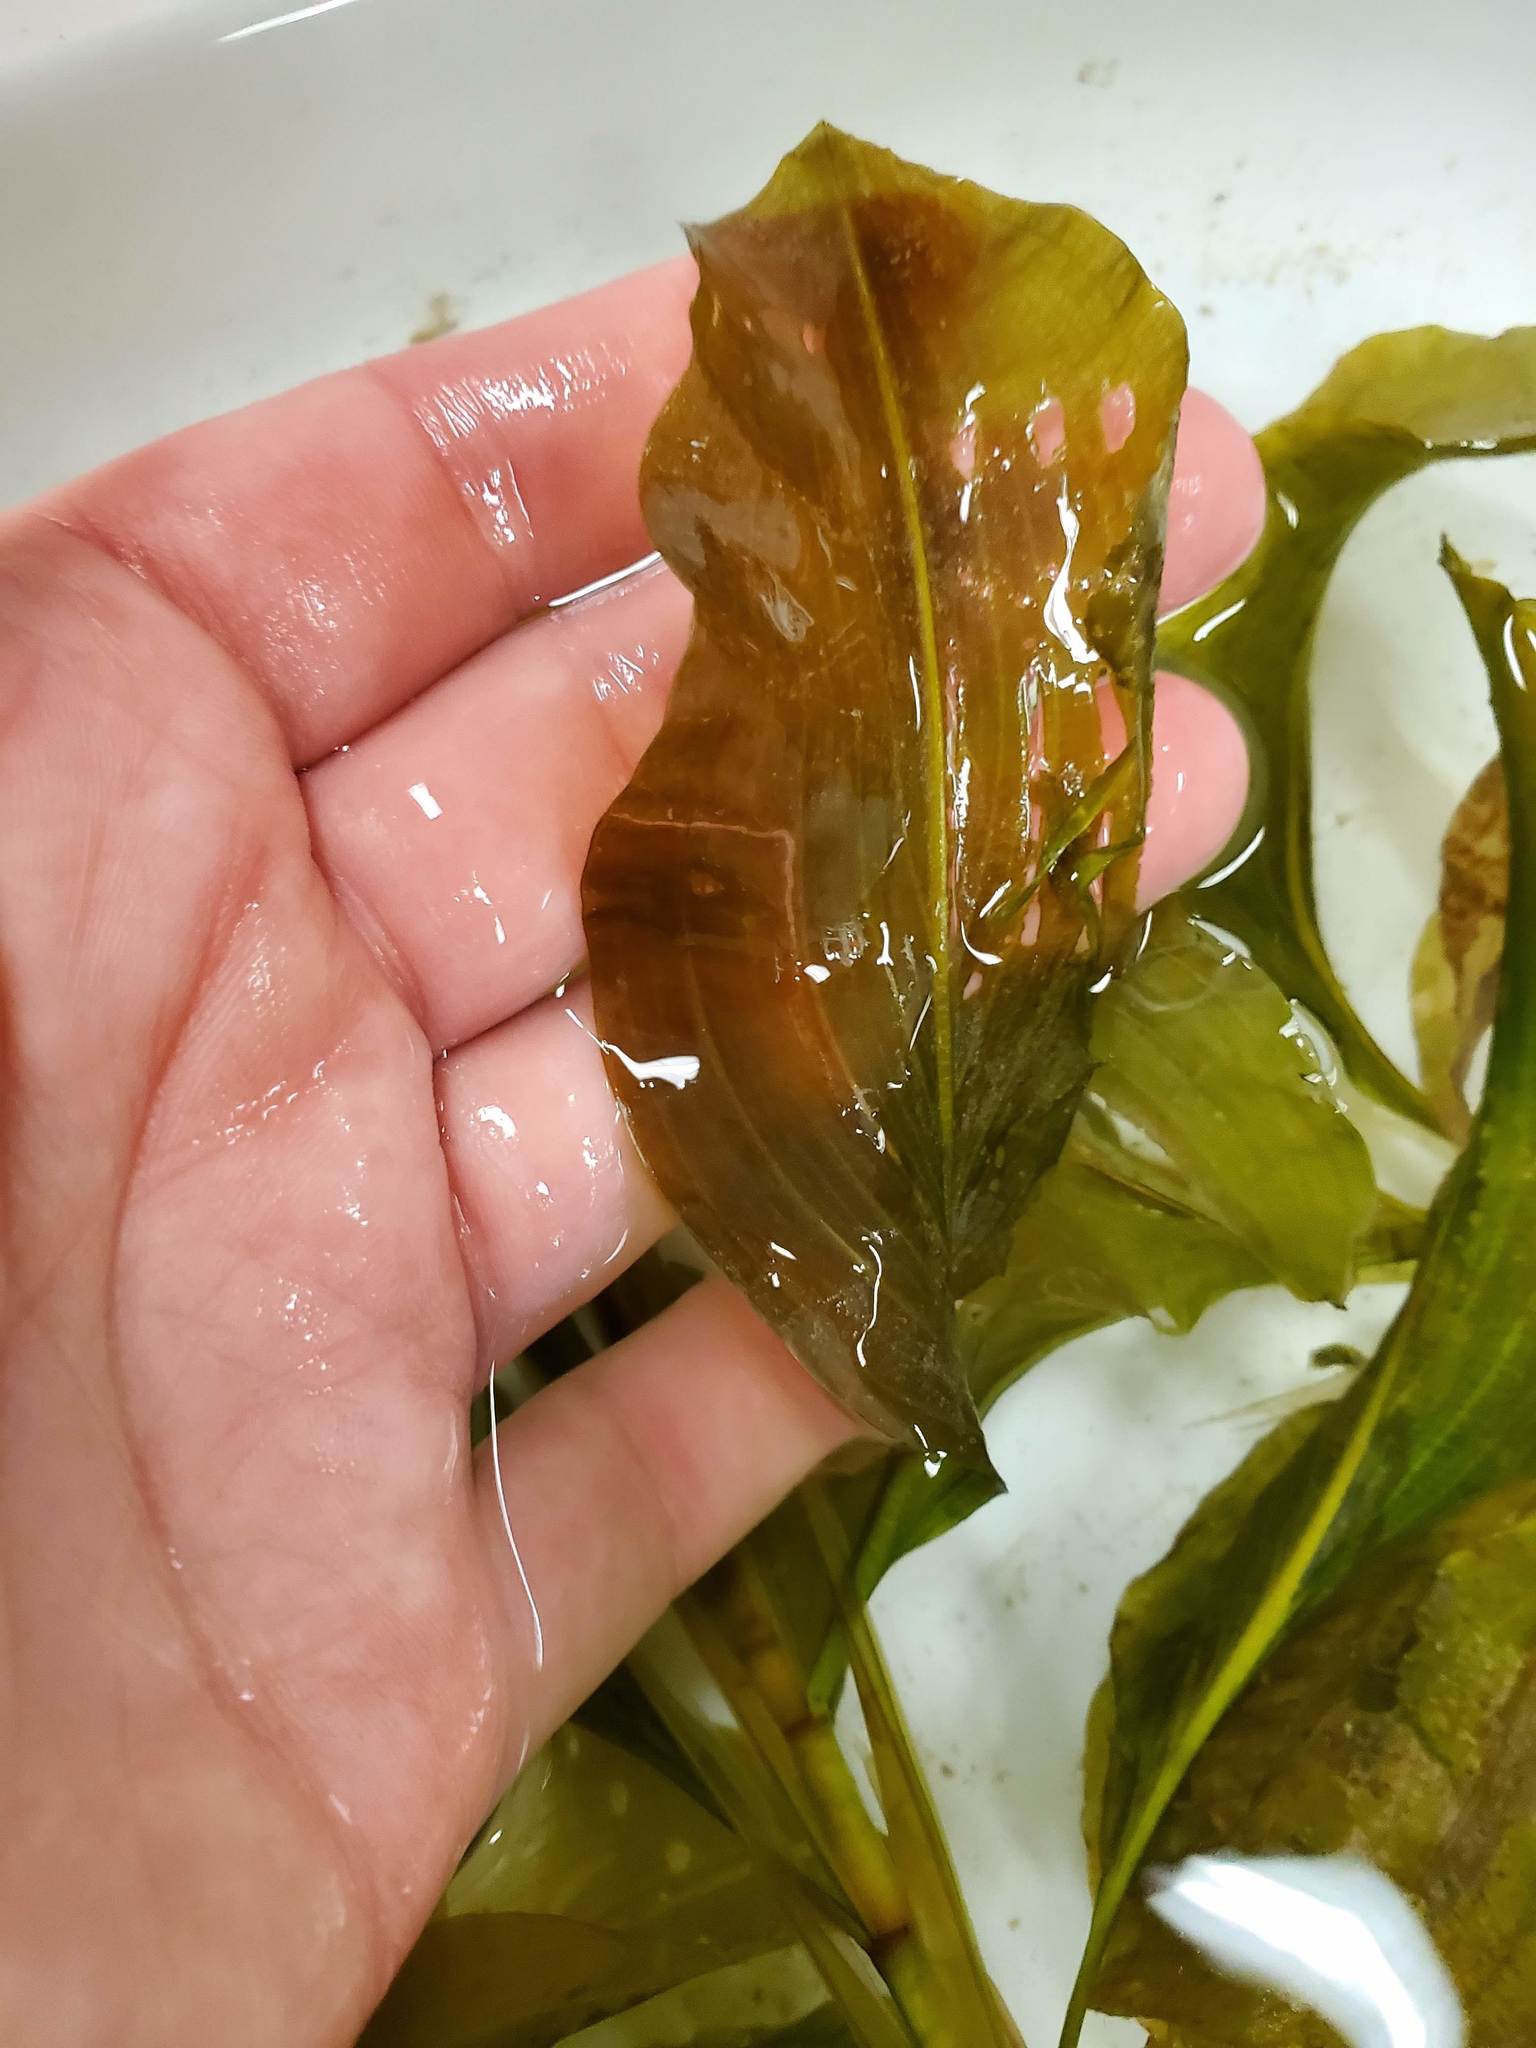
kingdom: Plantae
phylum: Tracheophyta
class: Liliopsida
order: Alismatales
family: Potamogetonaceae
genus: Potamogeton
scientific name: Potamogeton amplifolius
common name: Broad-leaved pondweed
